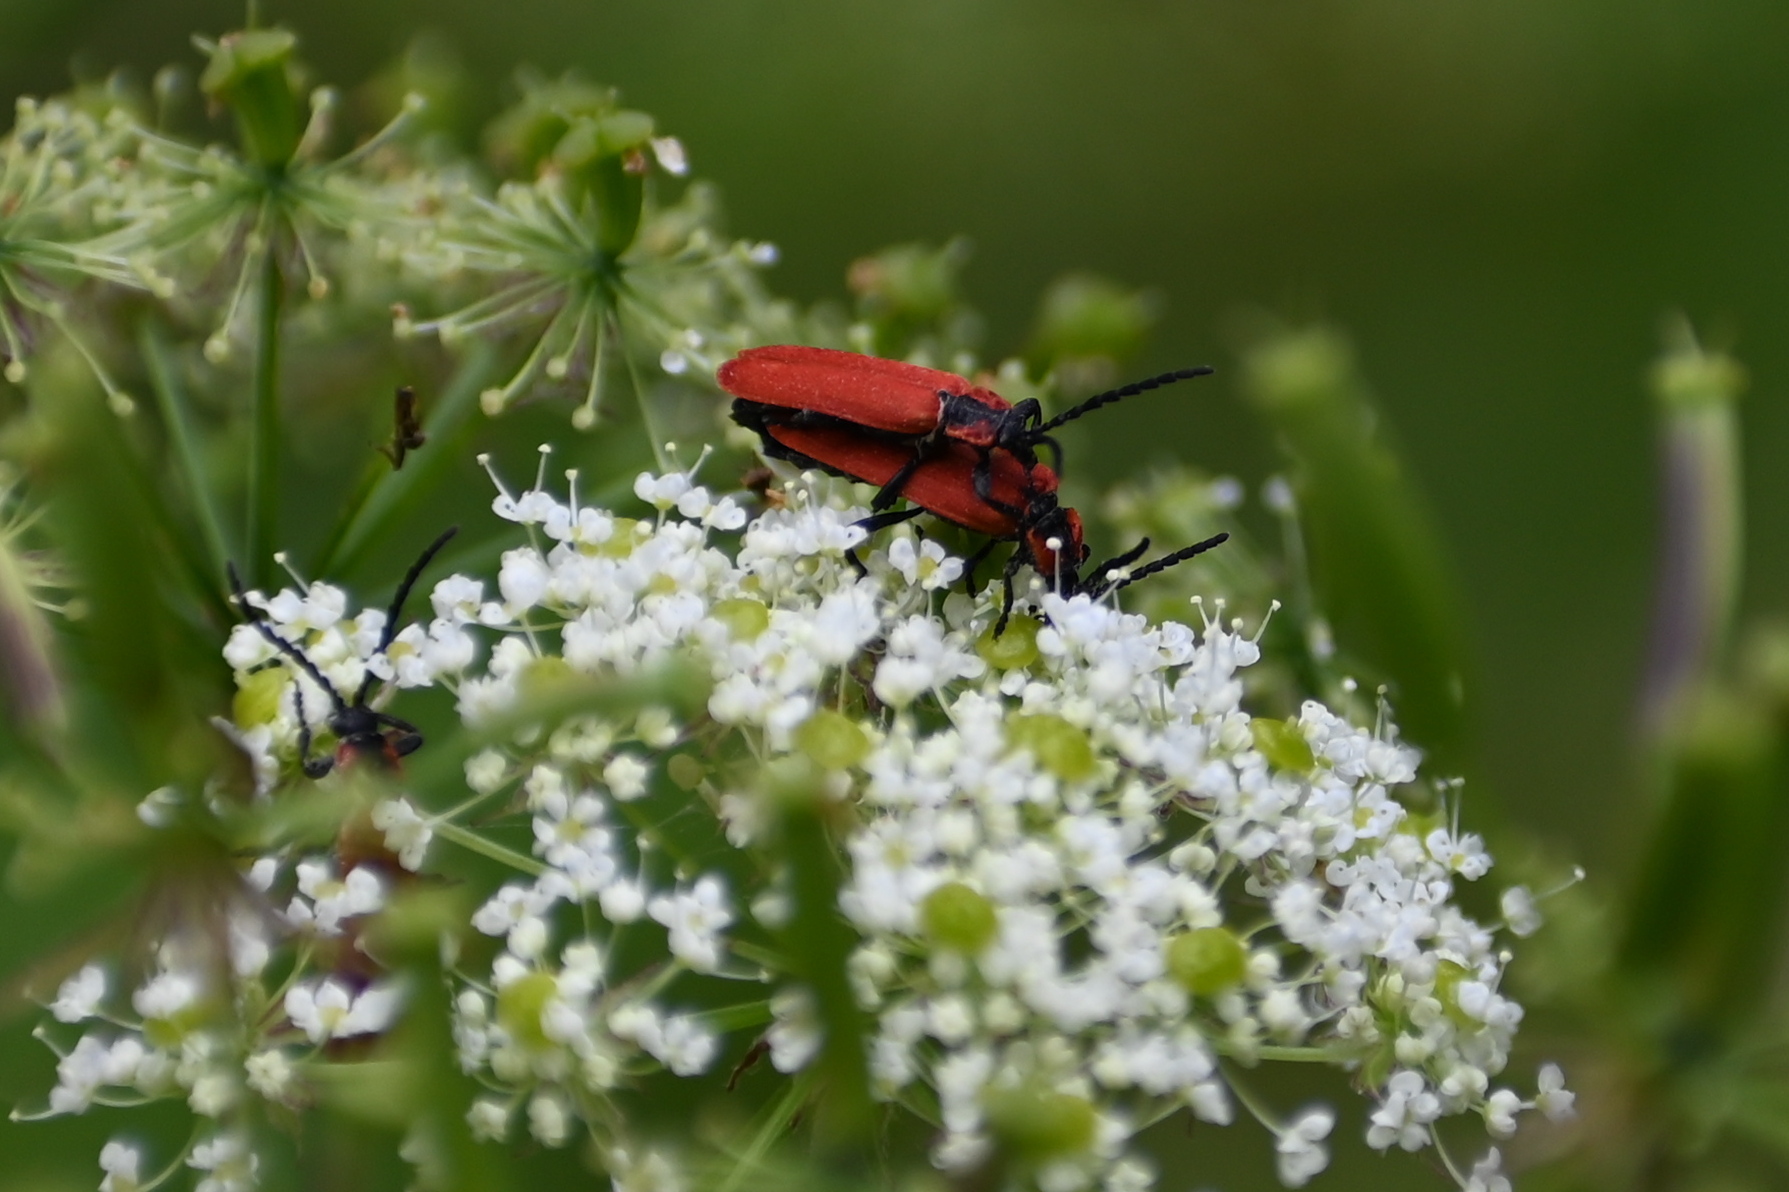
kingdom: Animalia
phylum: Arthropoda
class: Insecta
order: Coleoptera
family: Lycidae
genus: Lygistopterus
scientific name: Lygistopterus sanguineus
